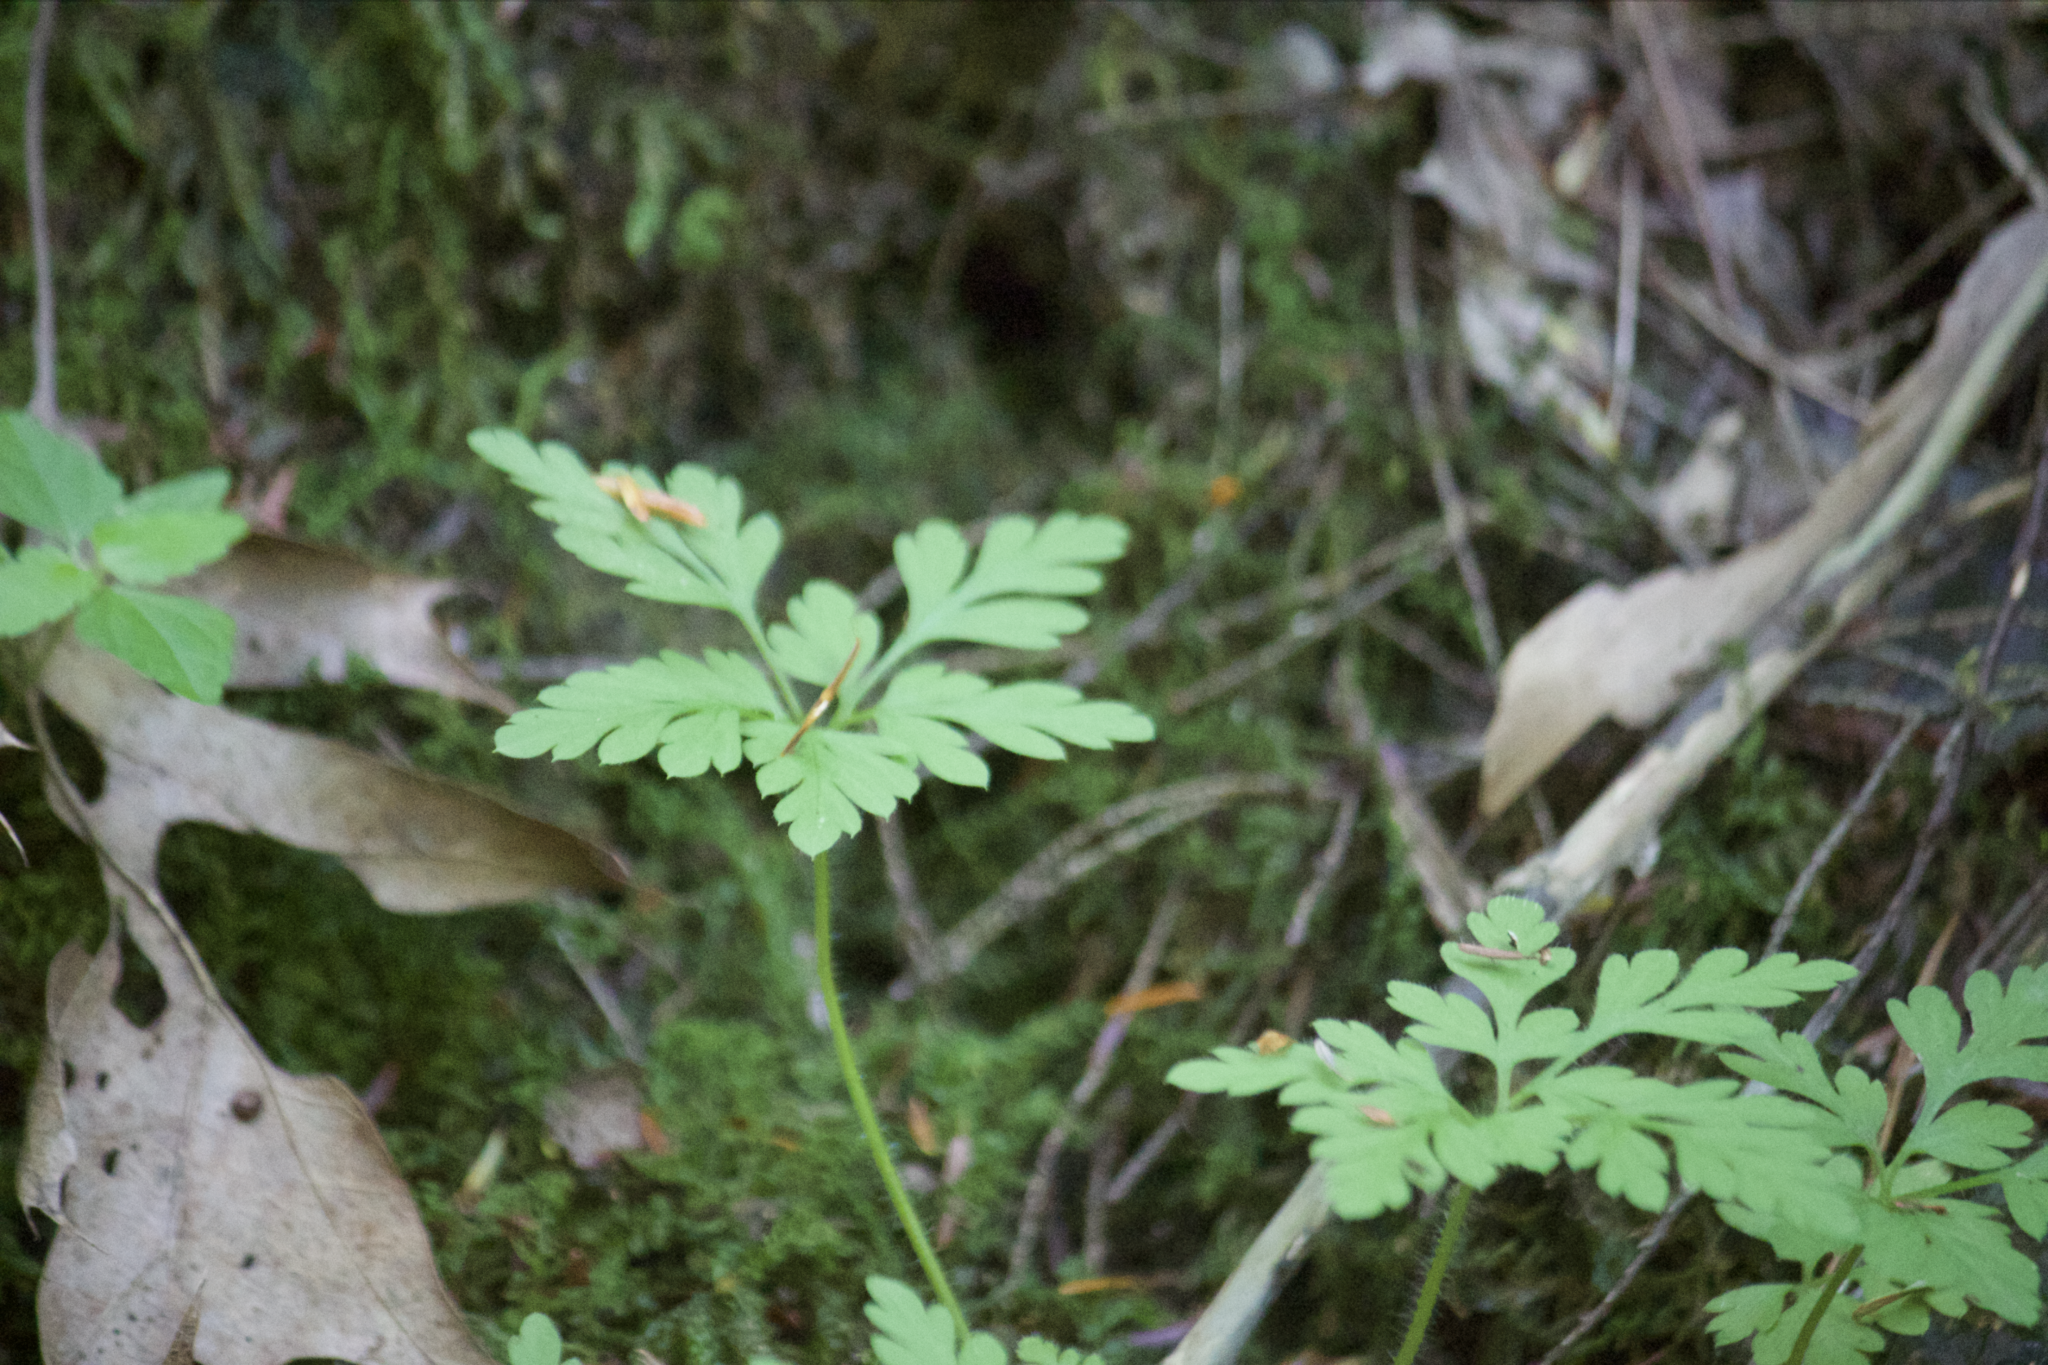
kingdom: Plantae
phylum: Tracheophyta
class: Magnoliopsida
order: Geraniales
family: Geraniaceae
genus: Geranium
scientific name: Geranium robertianum
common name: Herb-robert
